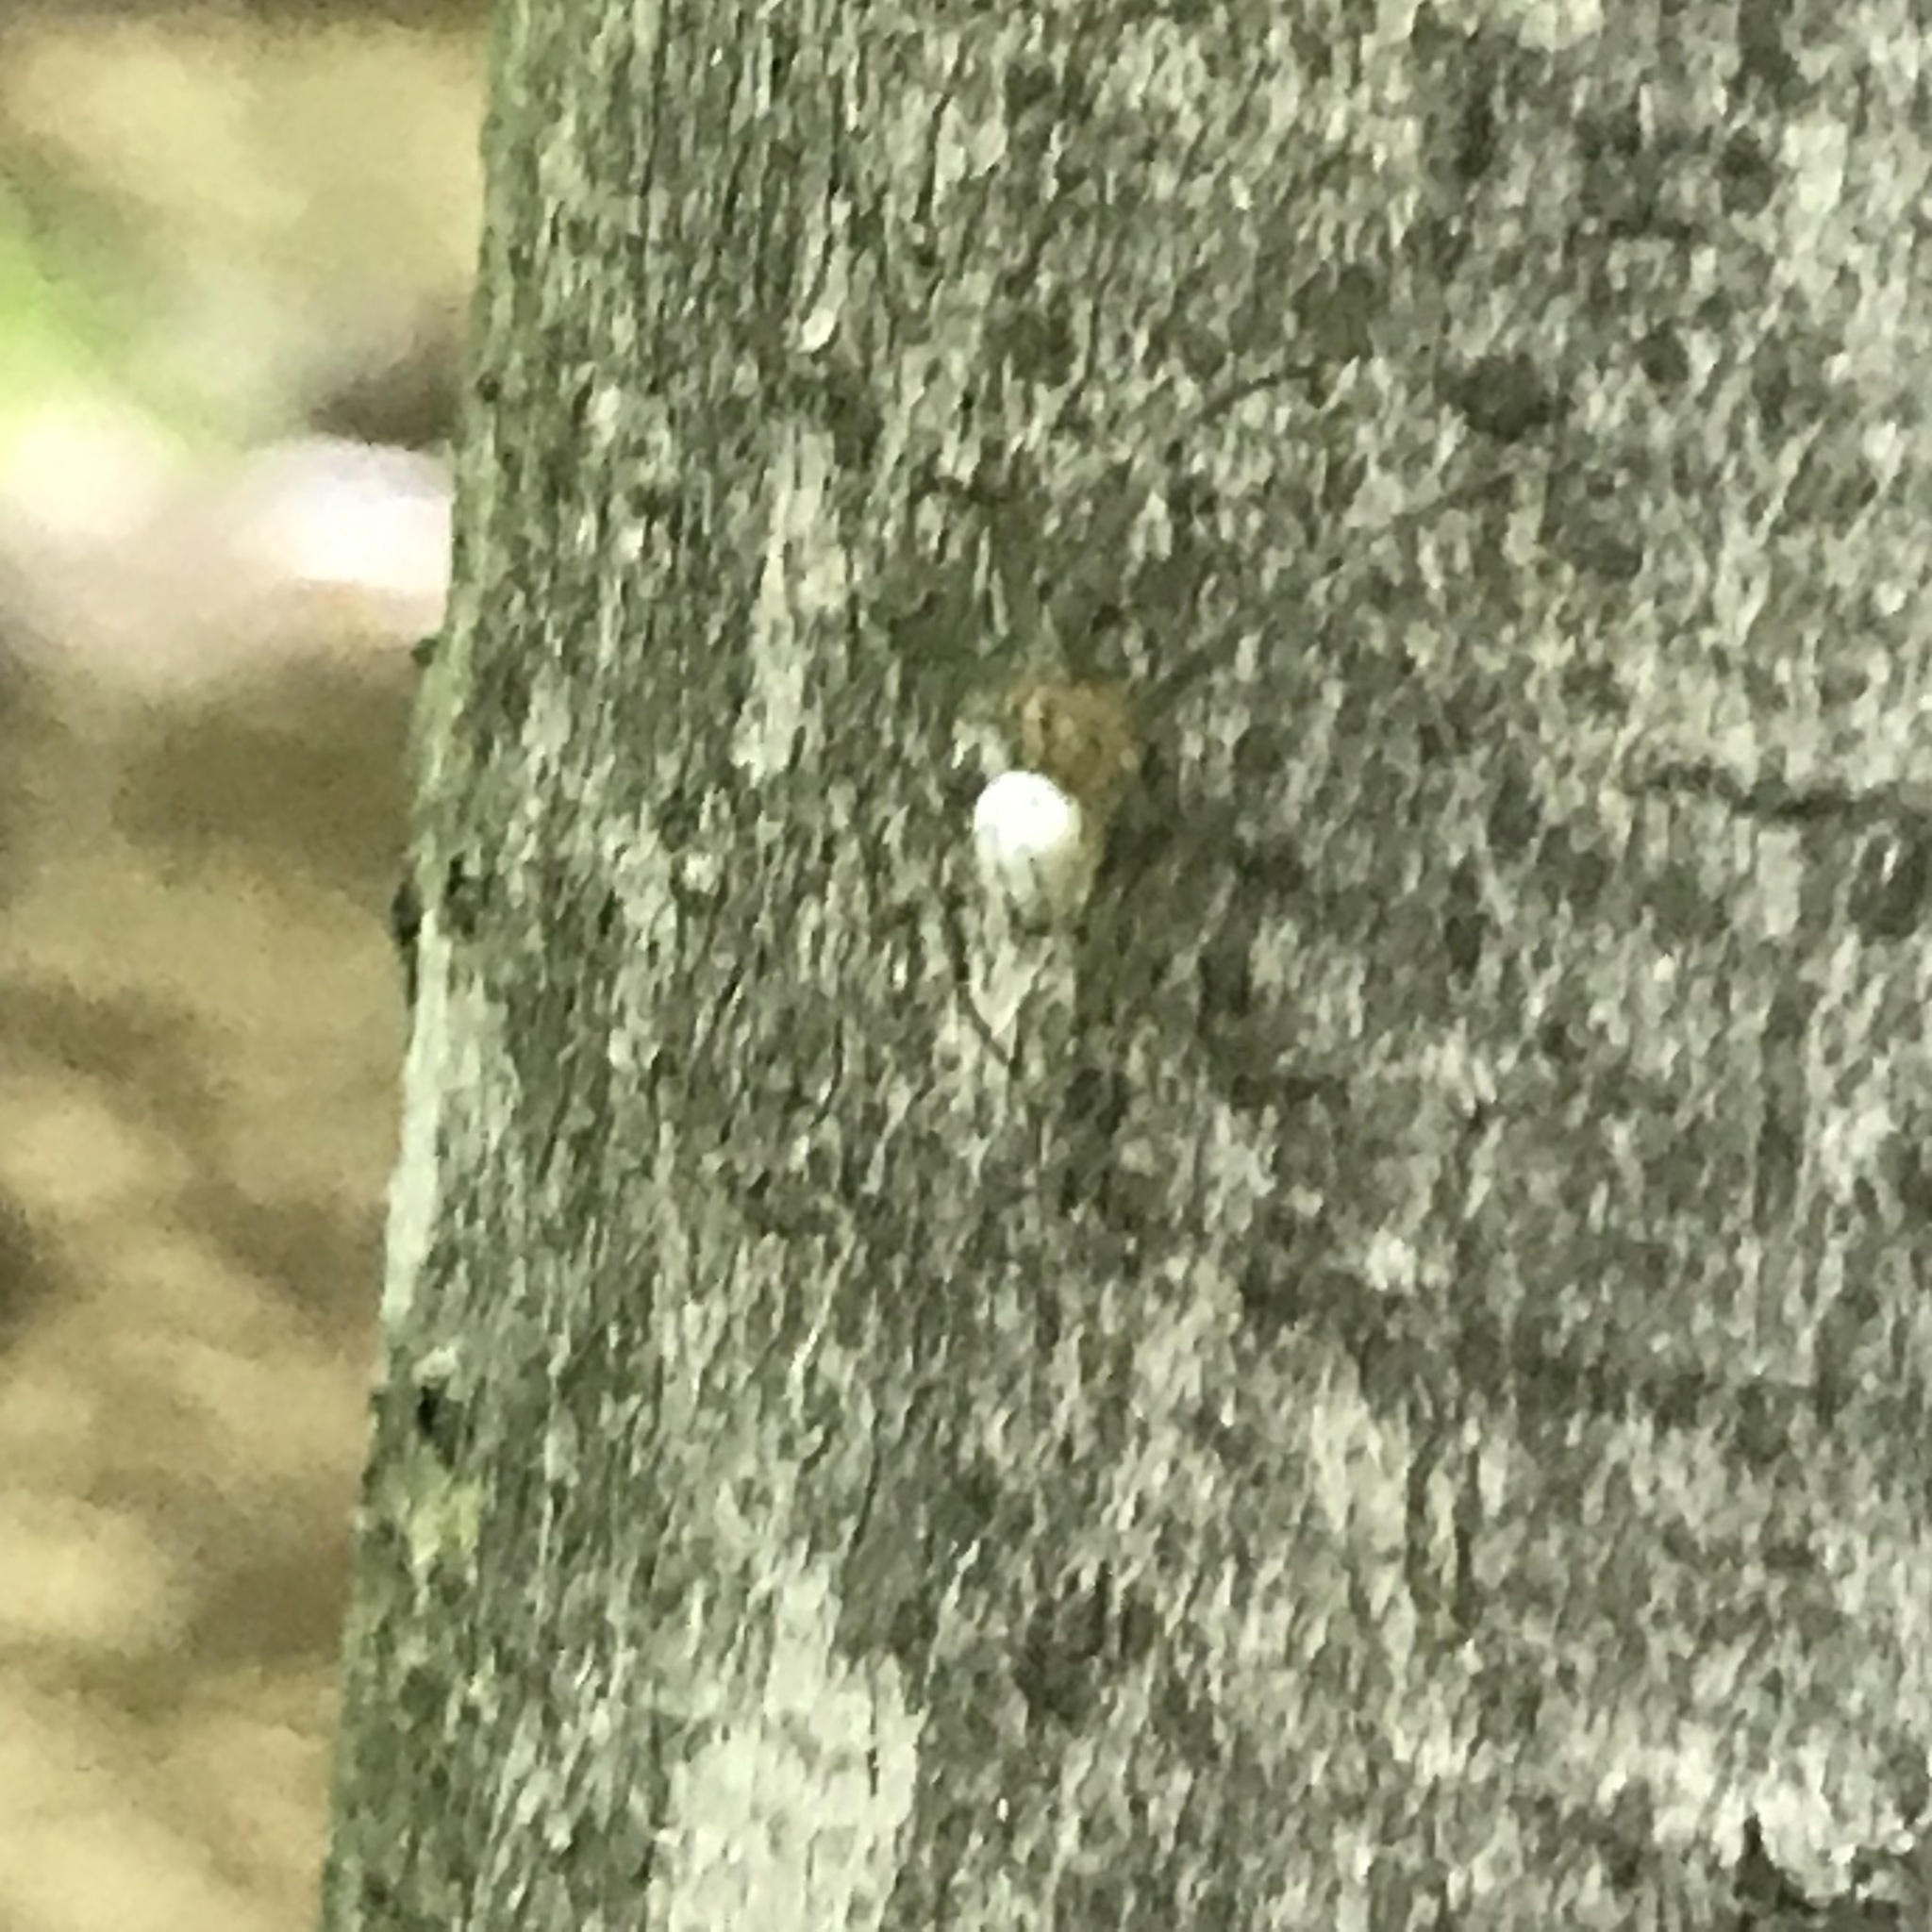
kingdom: Animalia
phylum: Arthropoda
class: Arachnida
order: Araneae
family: Tetragnathidae
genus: Leucauge
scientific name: Leucauge venusta
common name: Longjawed orb weavers
